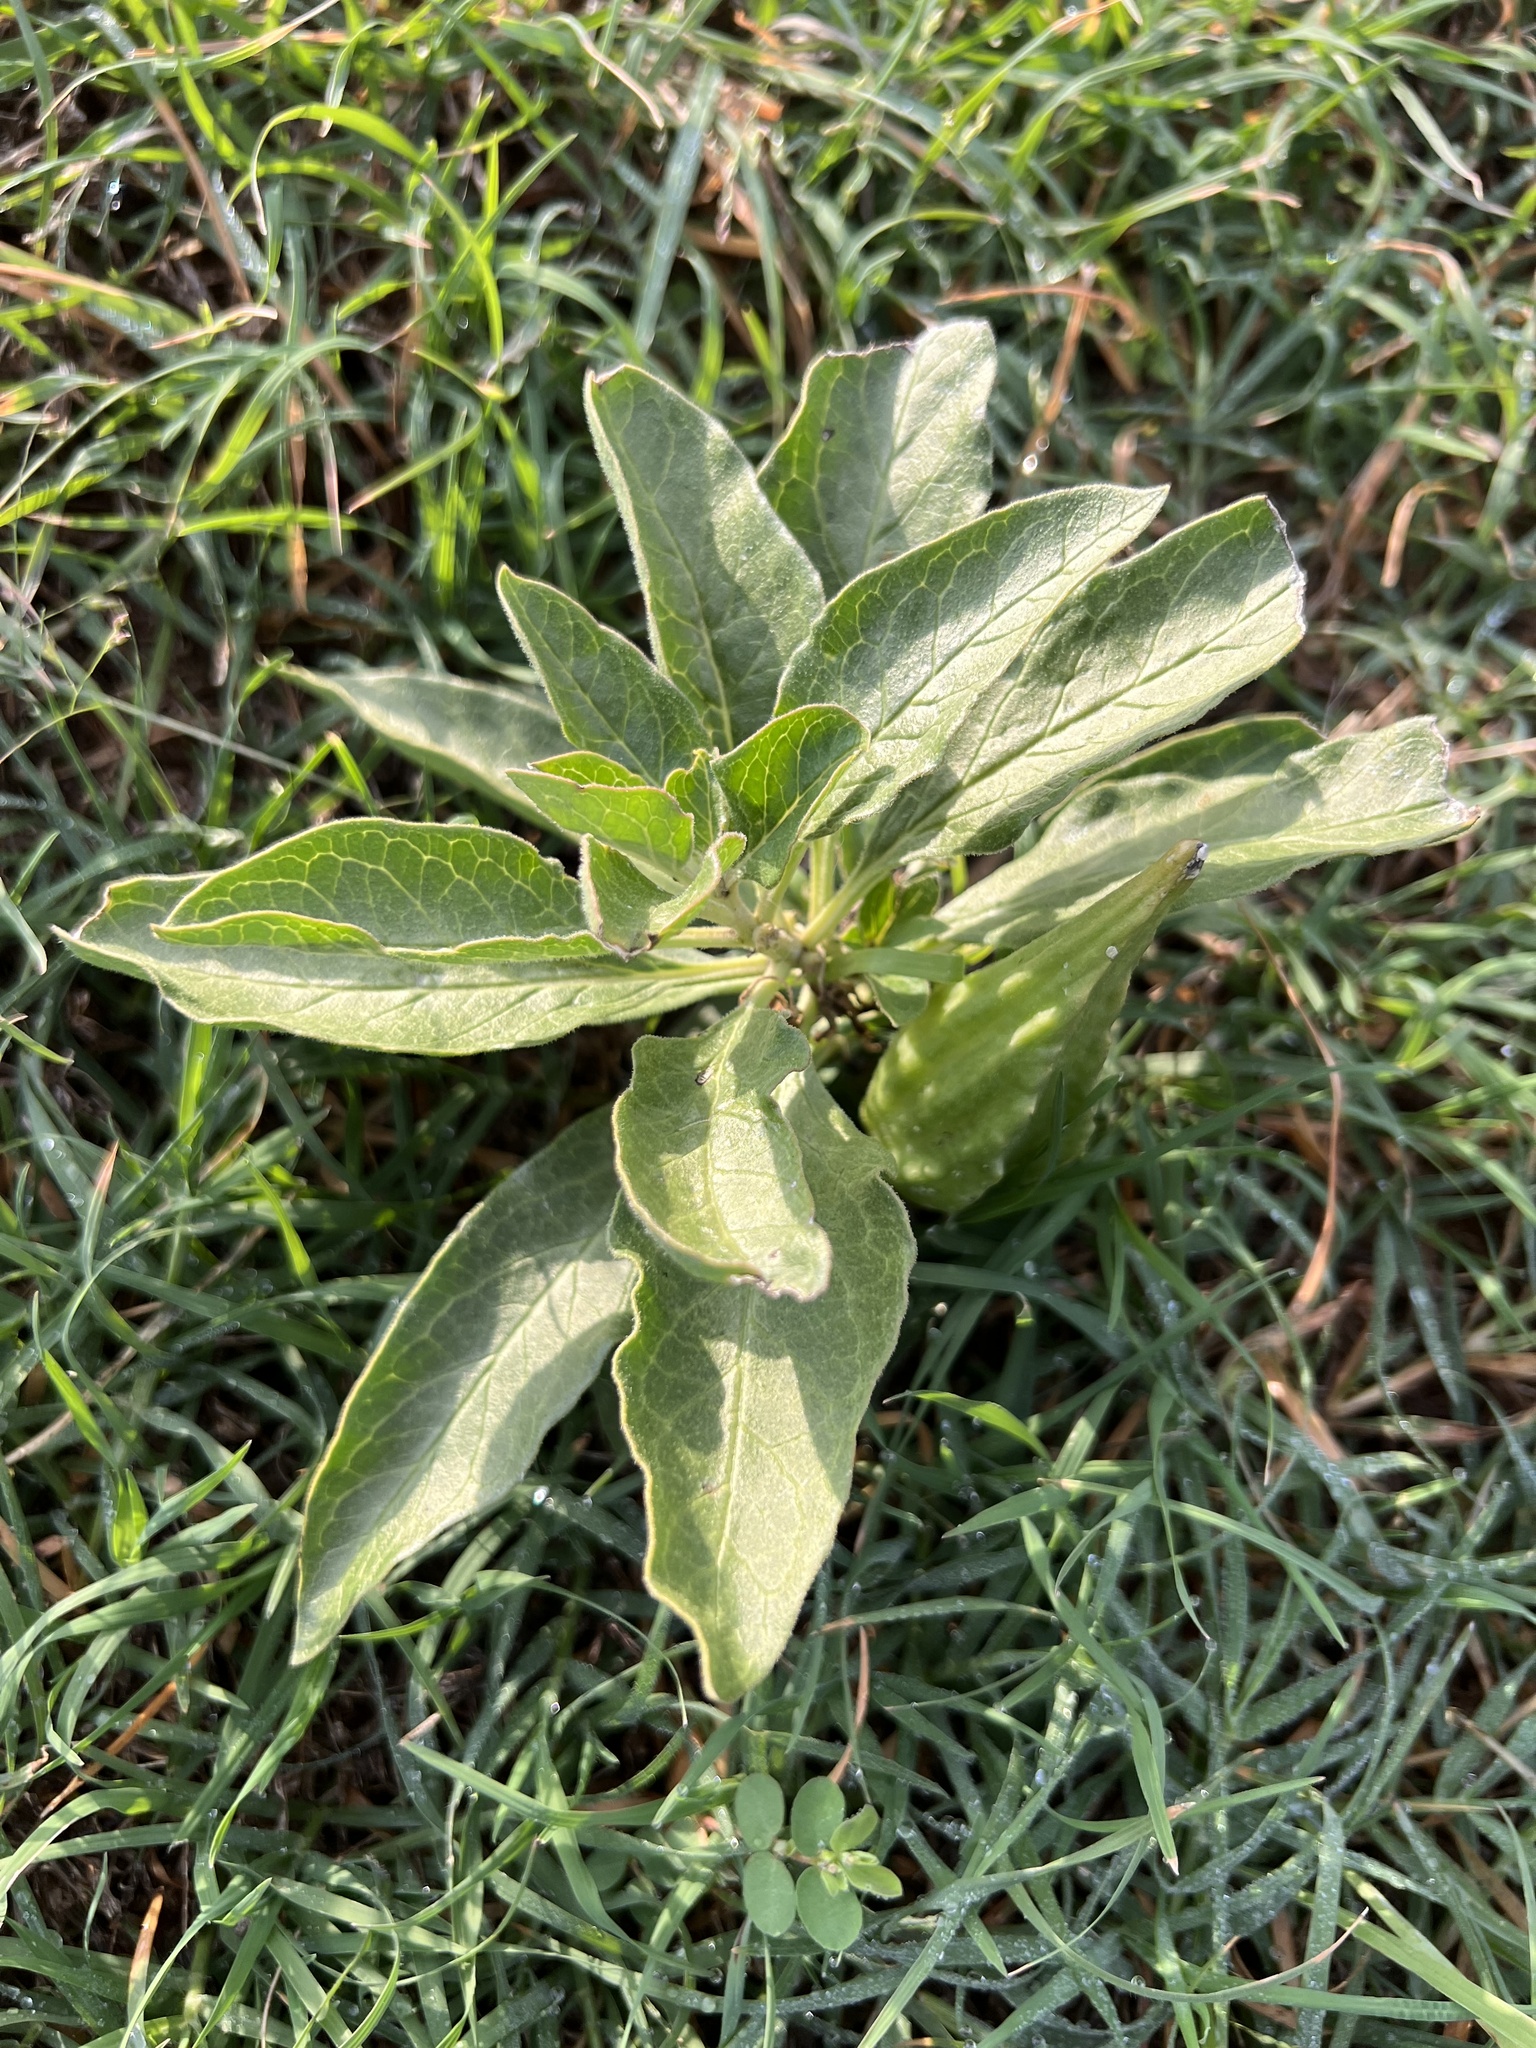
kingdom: Plantae
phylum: Tracheophyta
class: Magnoliopsida
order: Gentianales
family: Apocynaceae
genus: Asclepias
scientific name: Asclepias oenotheroides
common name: Zizotes milkweed
